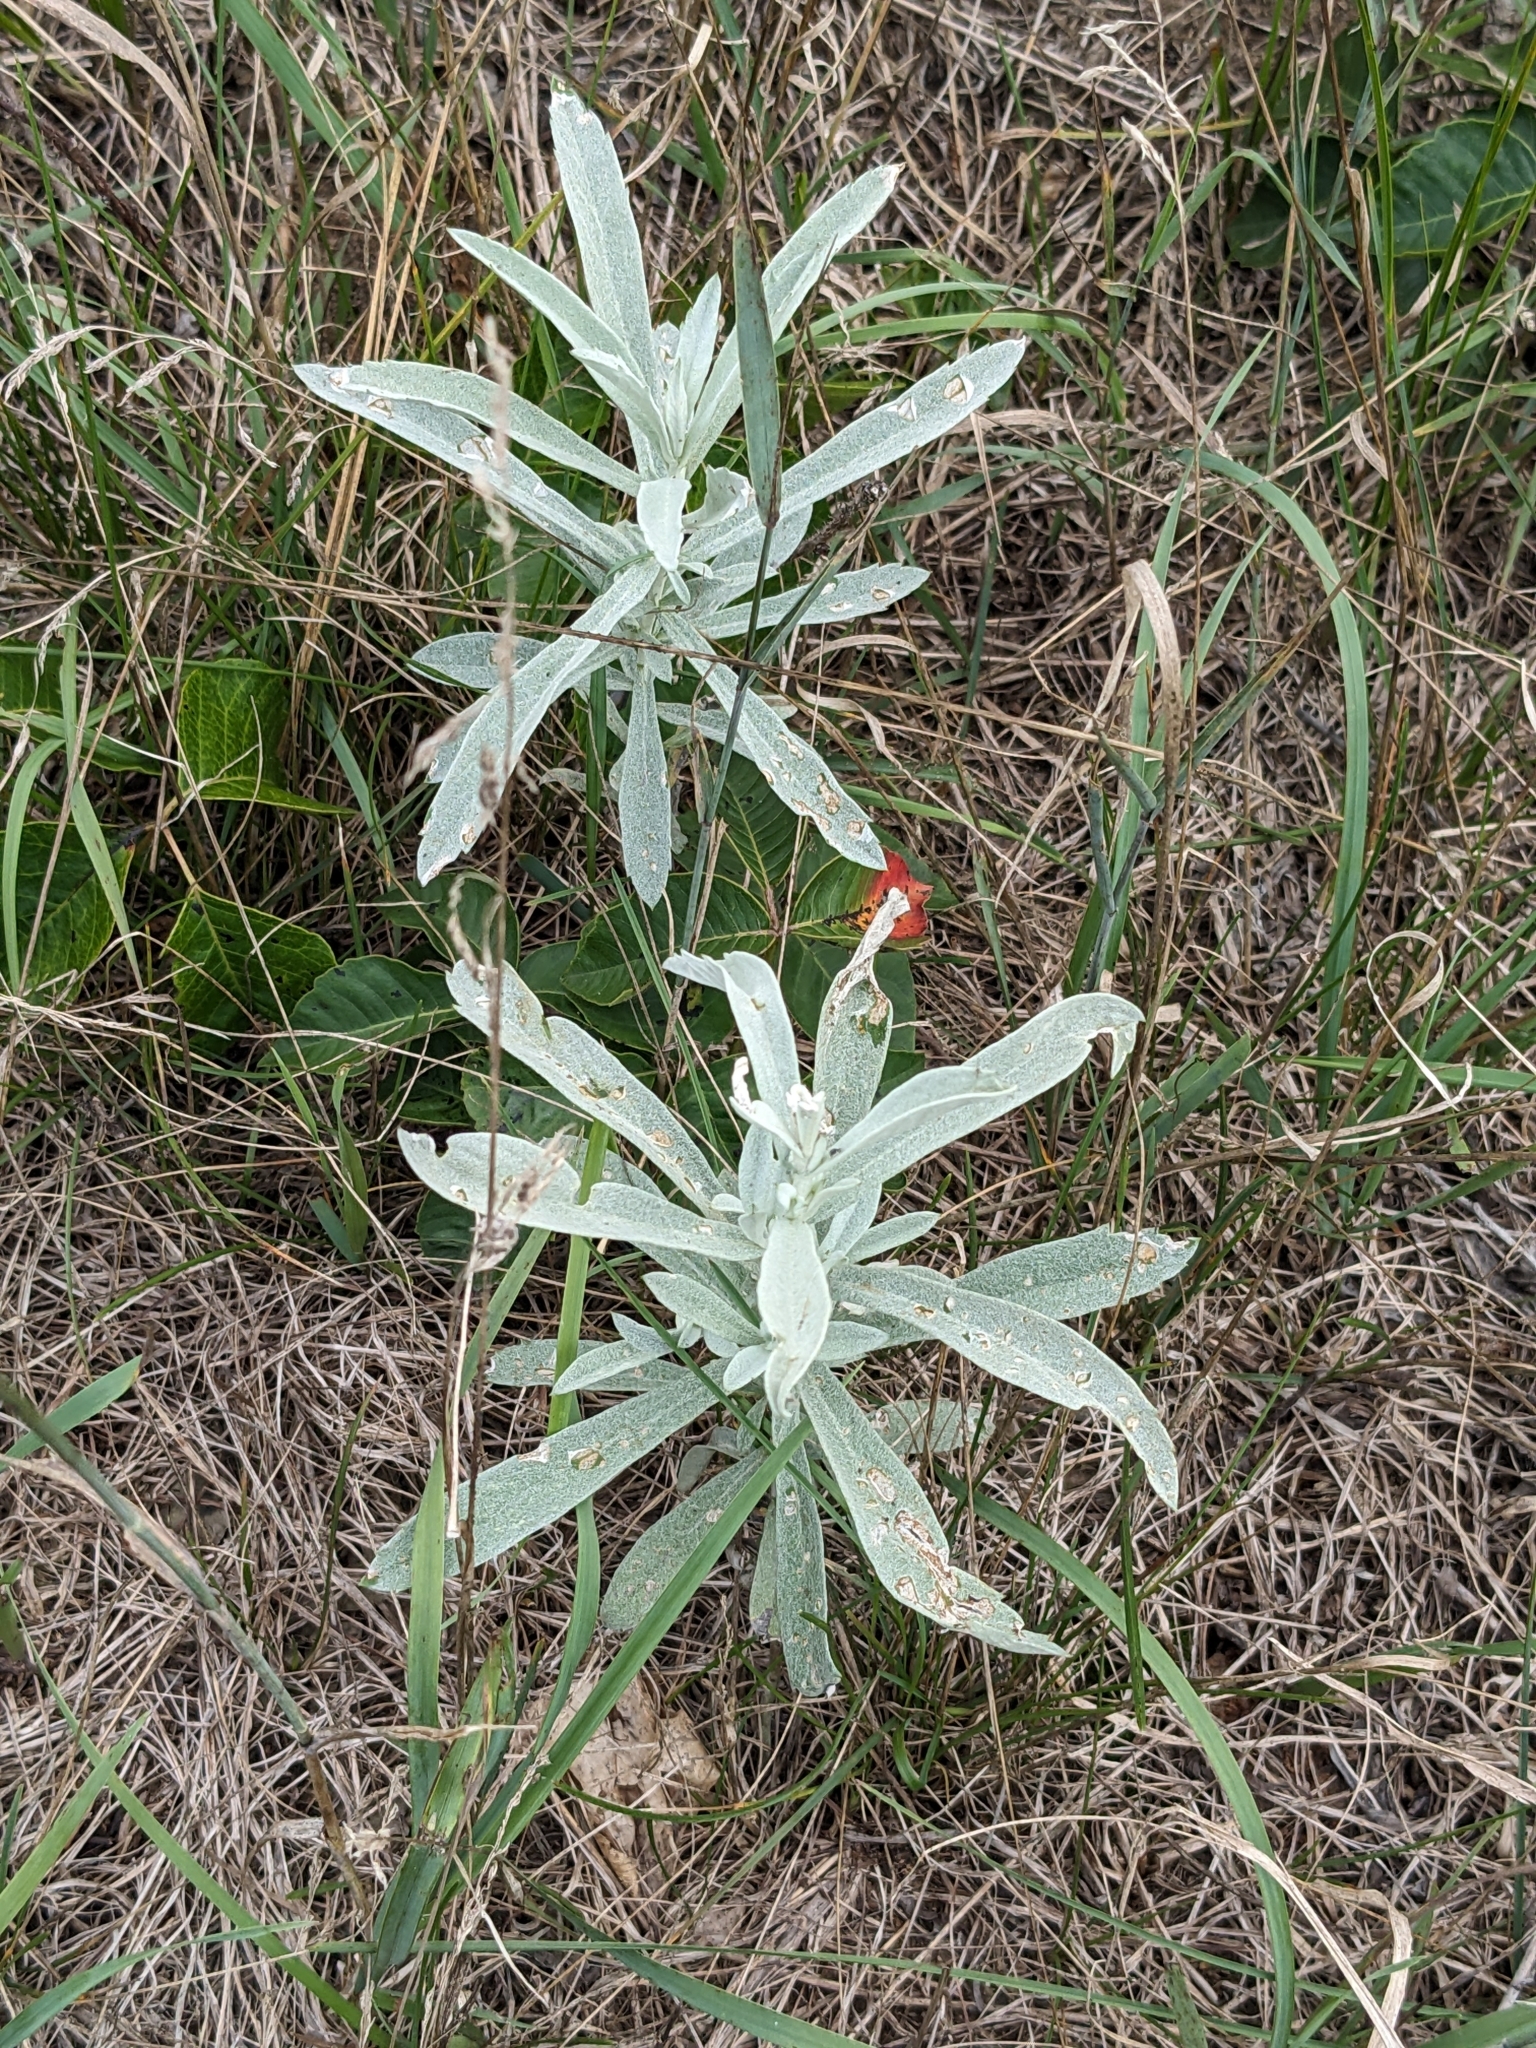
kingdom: Plantae
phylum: Tracheophyta
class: Magnoliopsida
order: Asterales
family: Asteraceae
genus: Artemisia
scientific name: Artemisia ludoviciana
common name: Western mugwort
